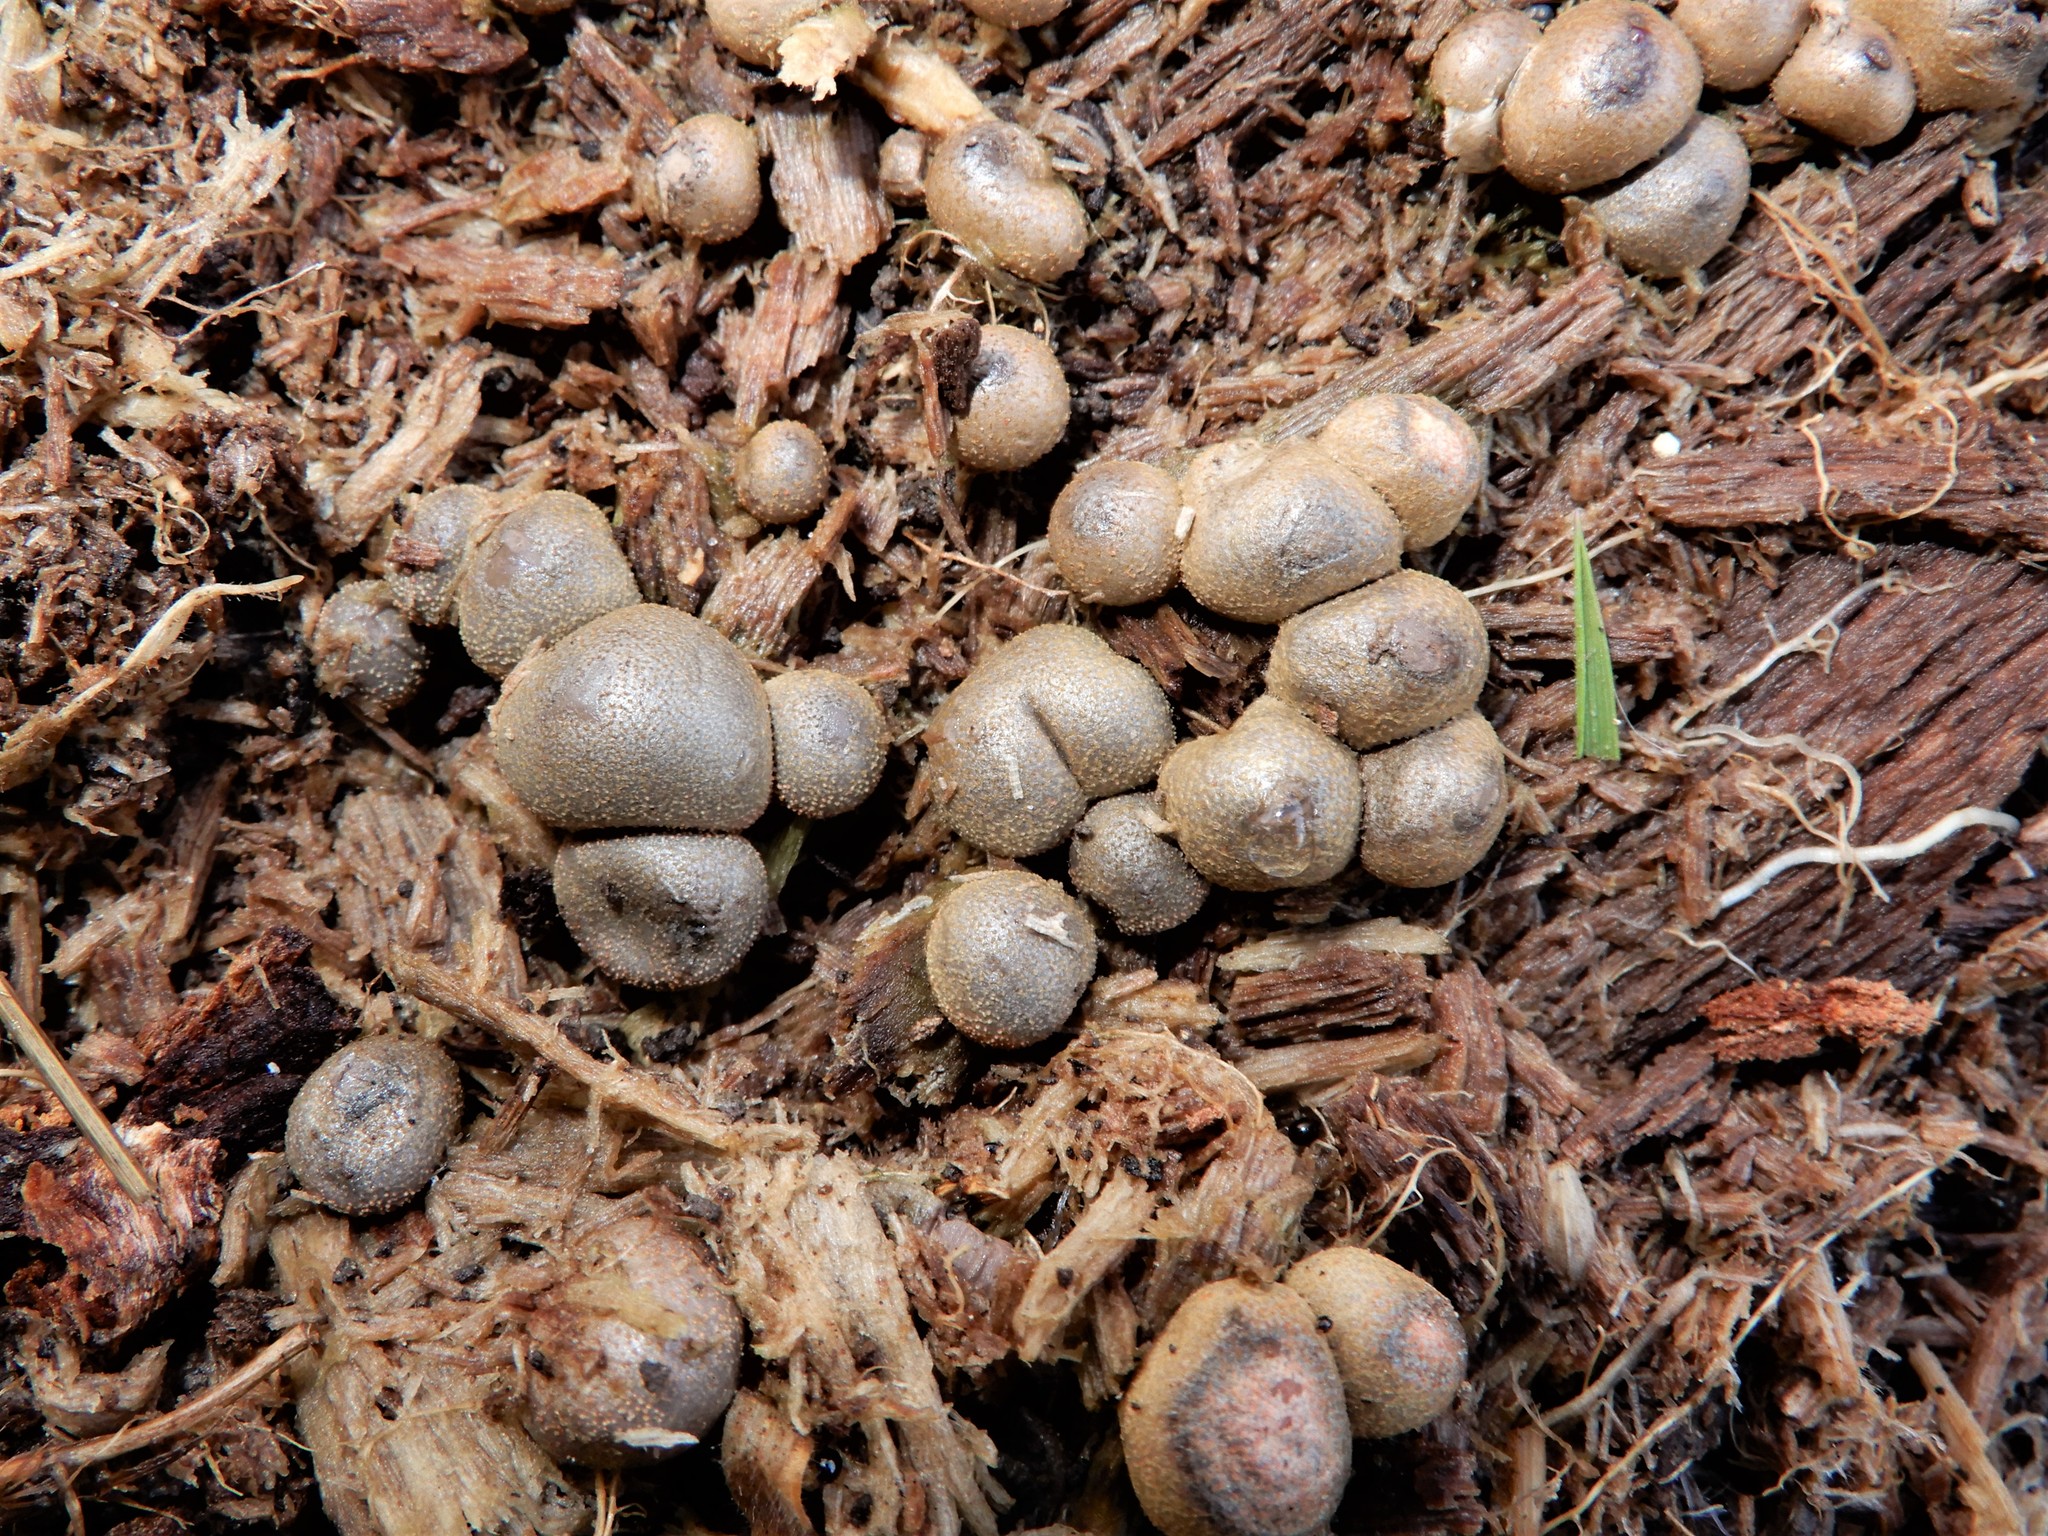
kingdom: Protozoa
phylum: Mycetozoa
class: Myxomycetes
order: Cribrariales
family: Tubiferaceae
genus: Lycogala
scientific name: Lycogala epidendrum
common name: Wolf's milk
